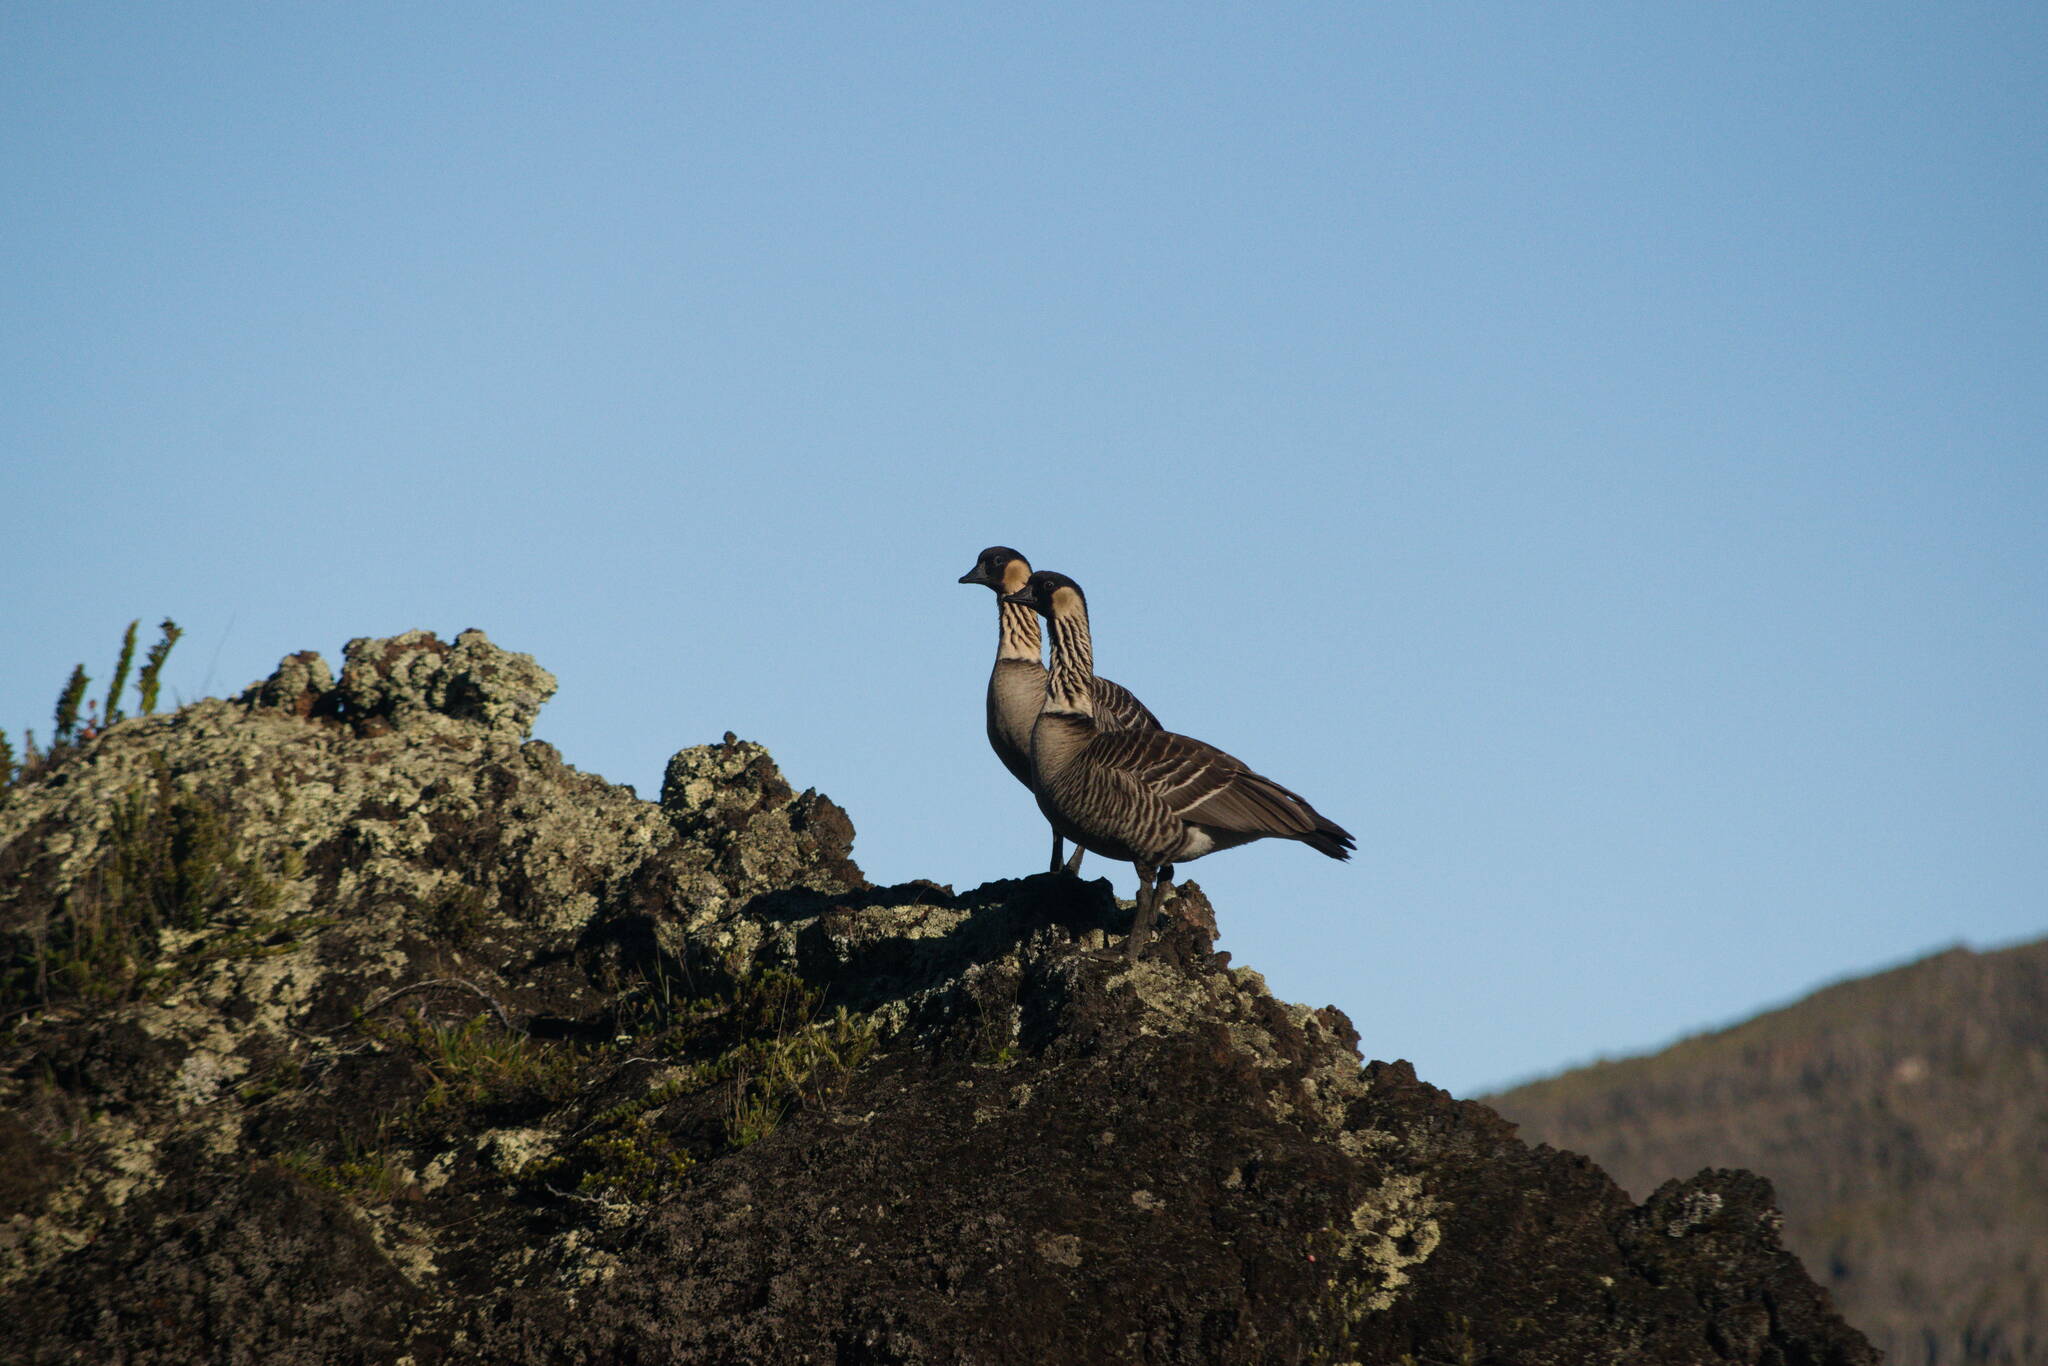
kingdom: Animalia
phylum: Chordata
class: Aves
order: Anseriformes
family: Anatidae
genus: Branta
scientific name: Branta sandvicensis
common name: Nene
